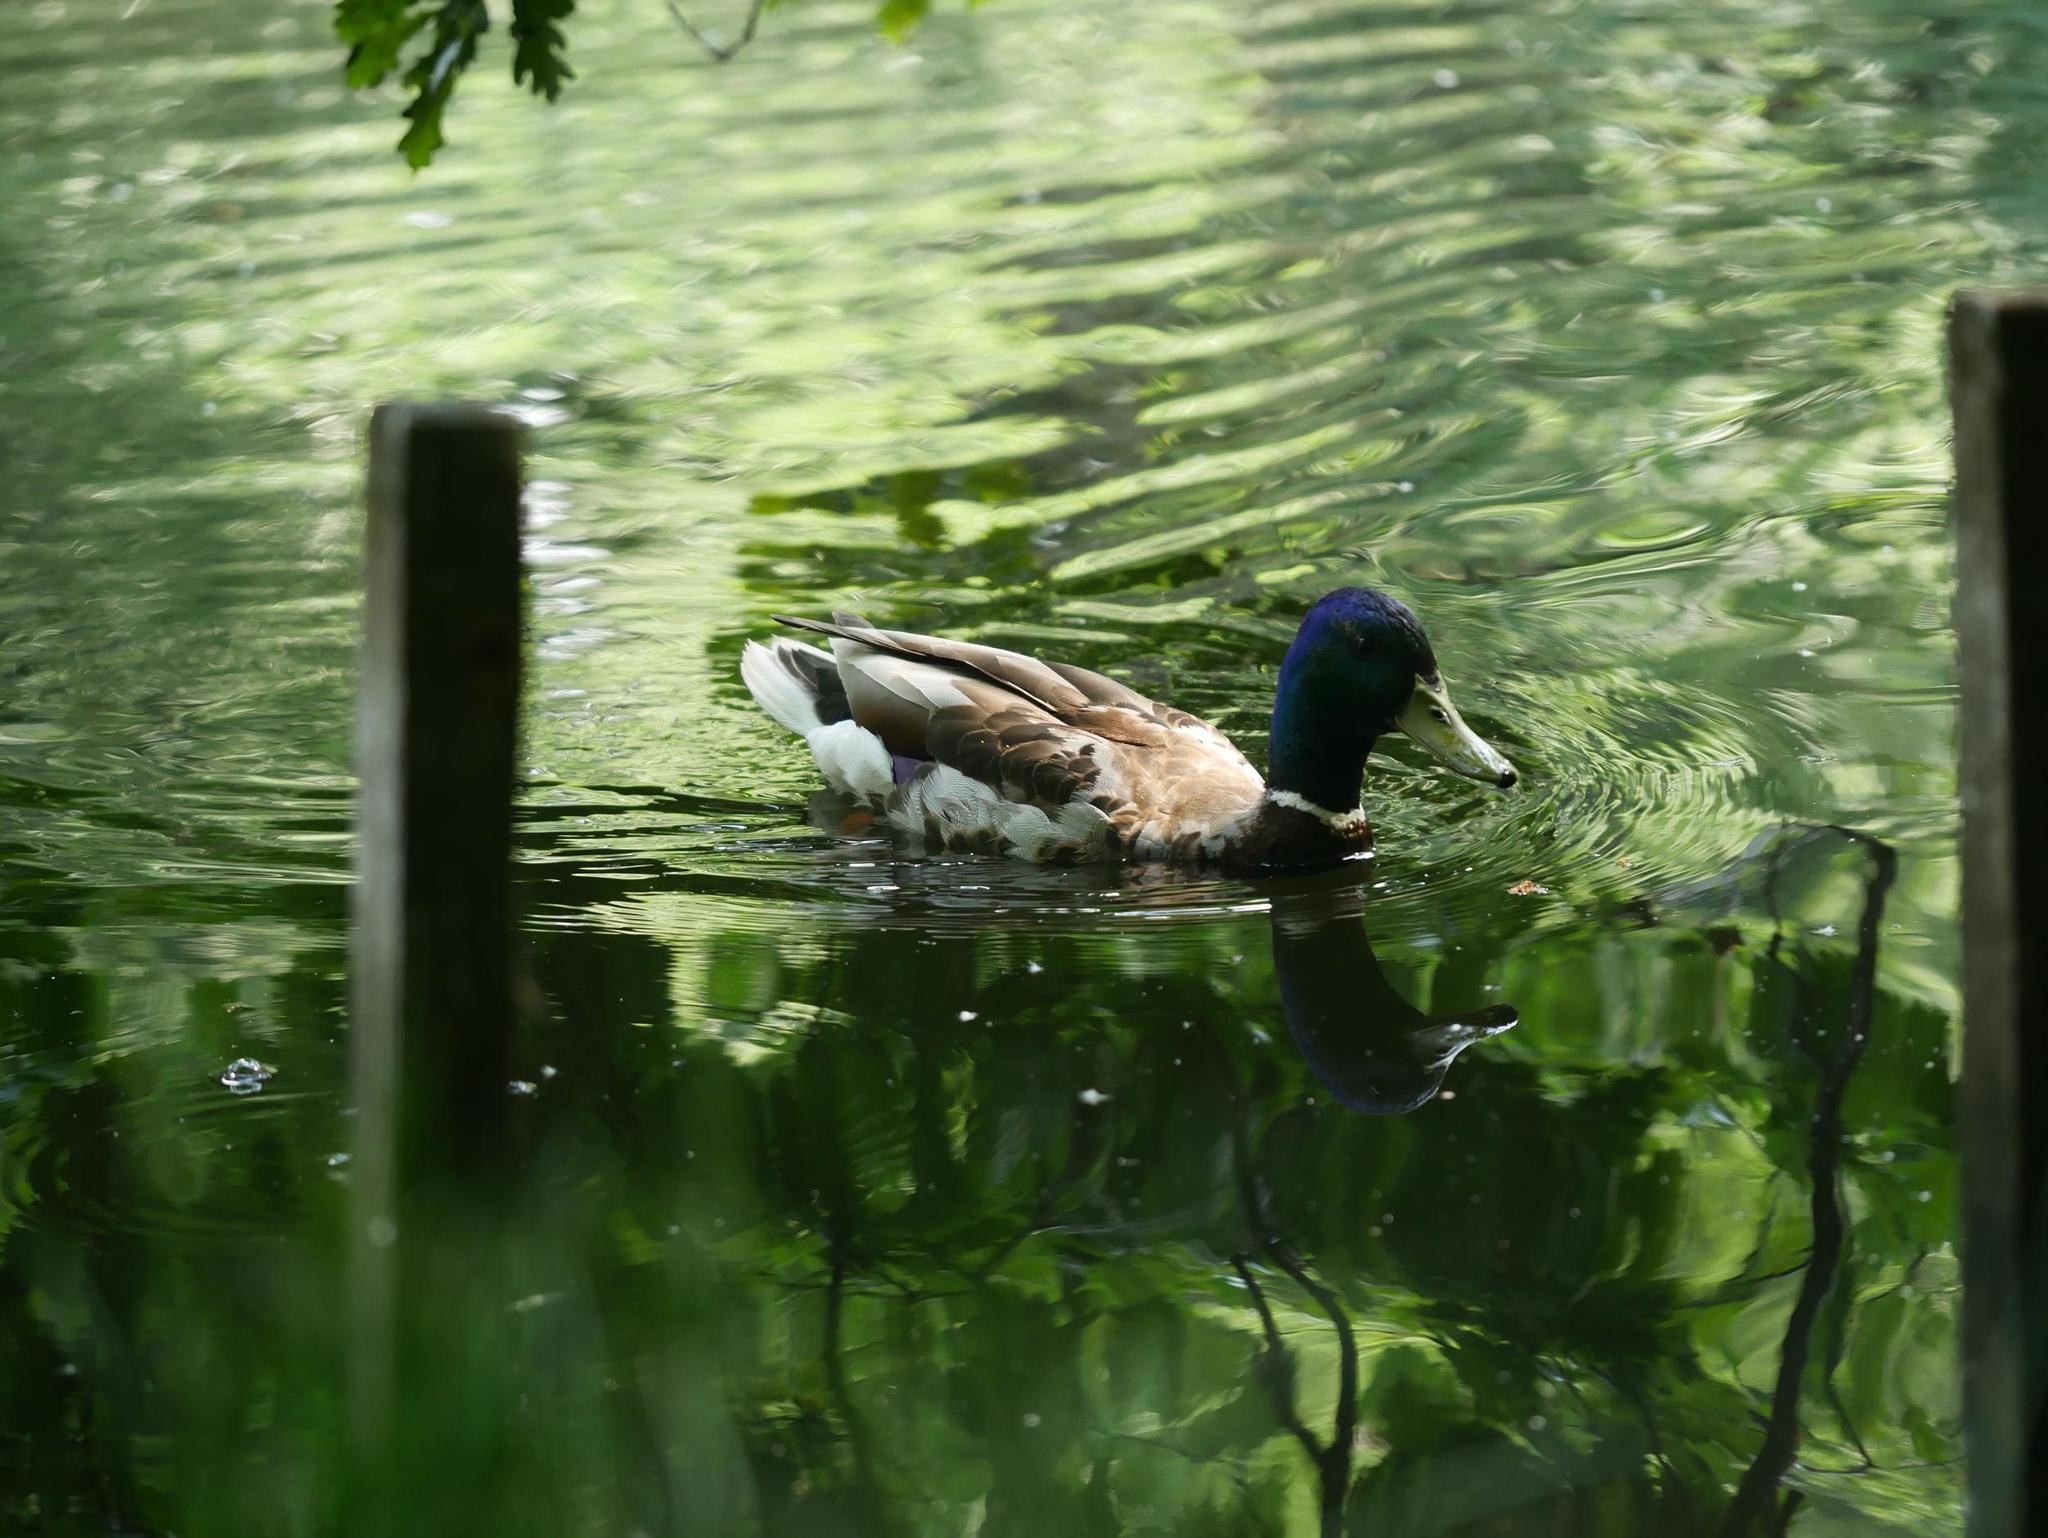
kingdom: Animalia
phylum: Chordata
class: Aves
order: Anseriformes
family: Anatidae
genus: Anas
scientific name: Anas platyrhynchos
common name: Mallard
